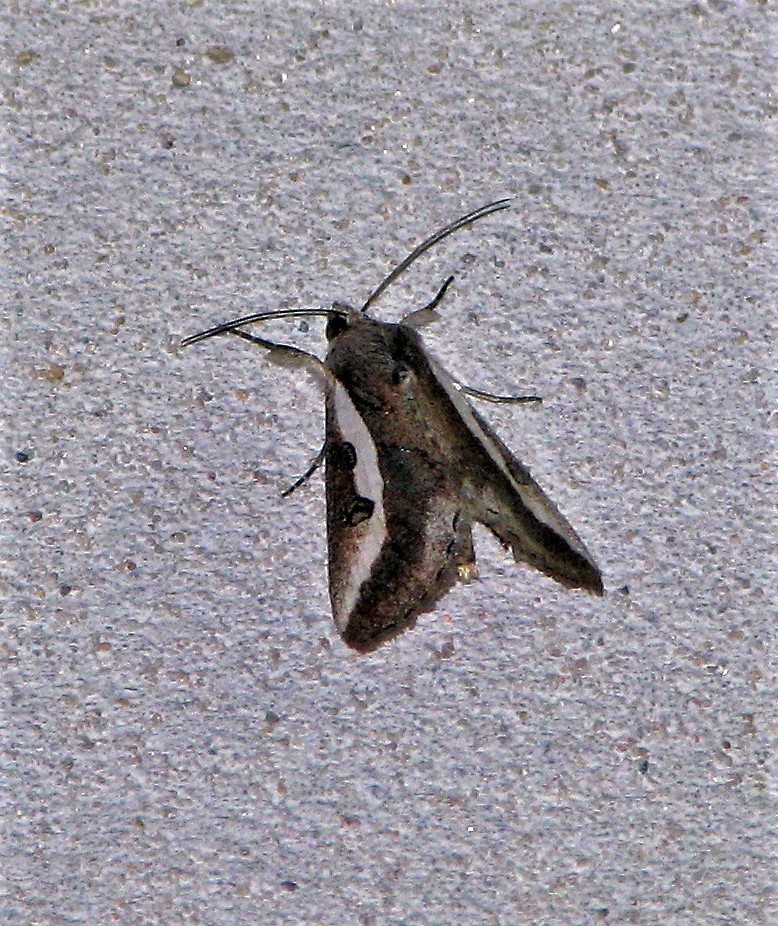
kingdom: Animalia
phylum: Arthropoda
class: Insecta
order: Lepidoptera
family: Noctuidae
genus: Neotuerta
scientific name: Neotuerta platensis
